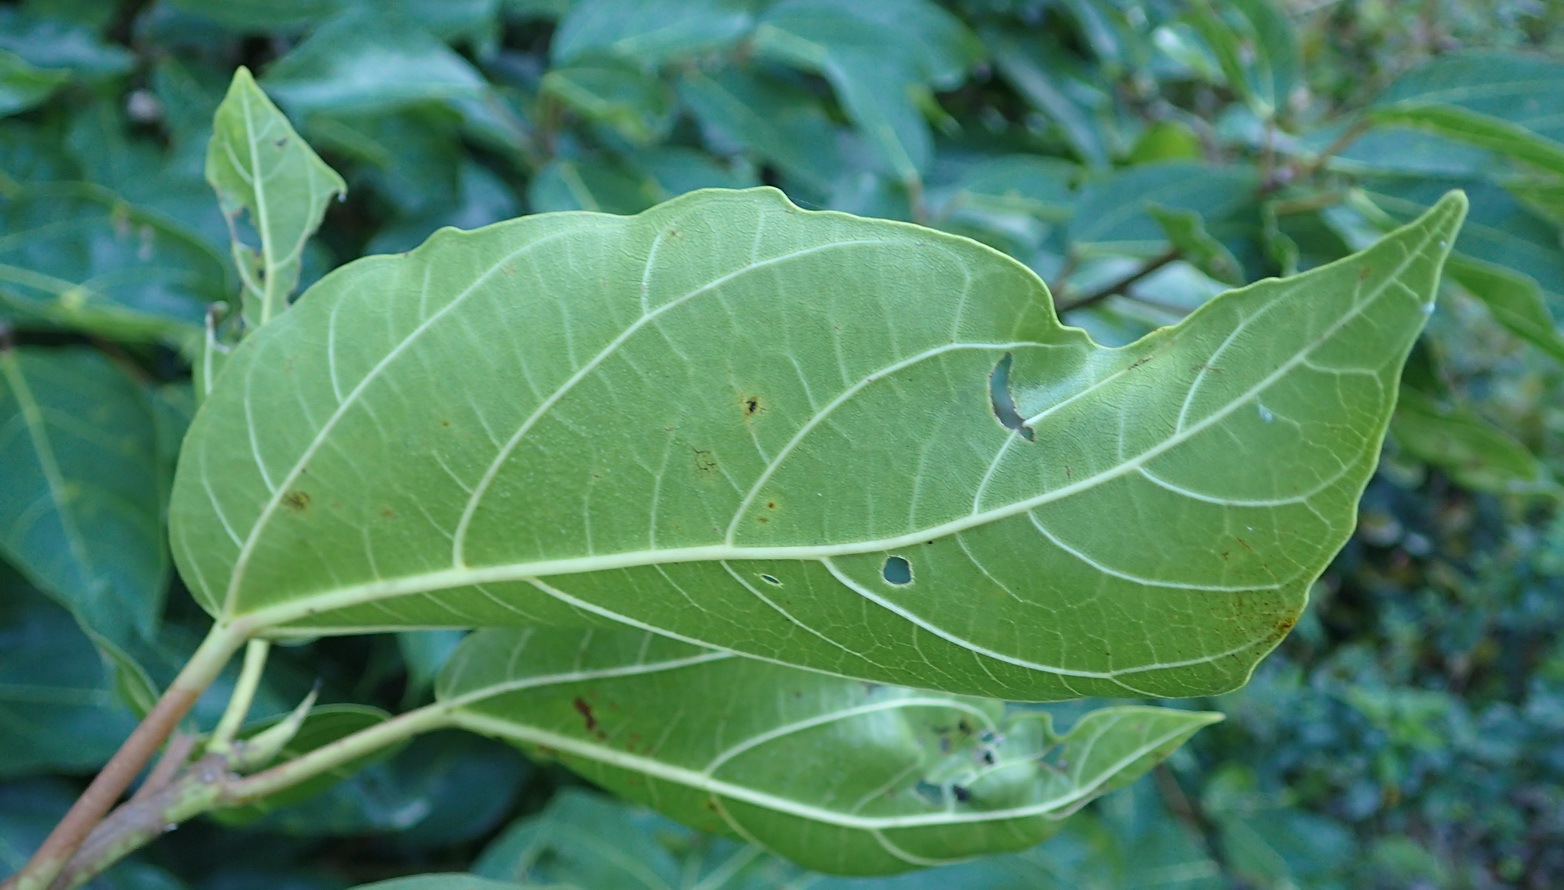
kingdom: Plantae
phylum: Tracheophyta
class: Magnoliopsida
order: Rosales
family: Moraceae
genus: Ficus
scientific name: Ficus sur
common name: Cape fig
